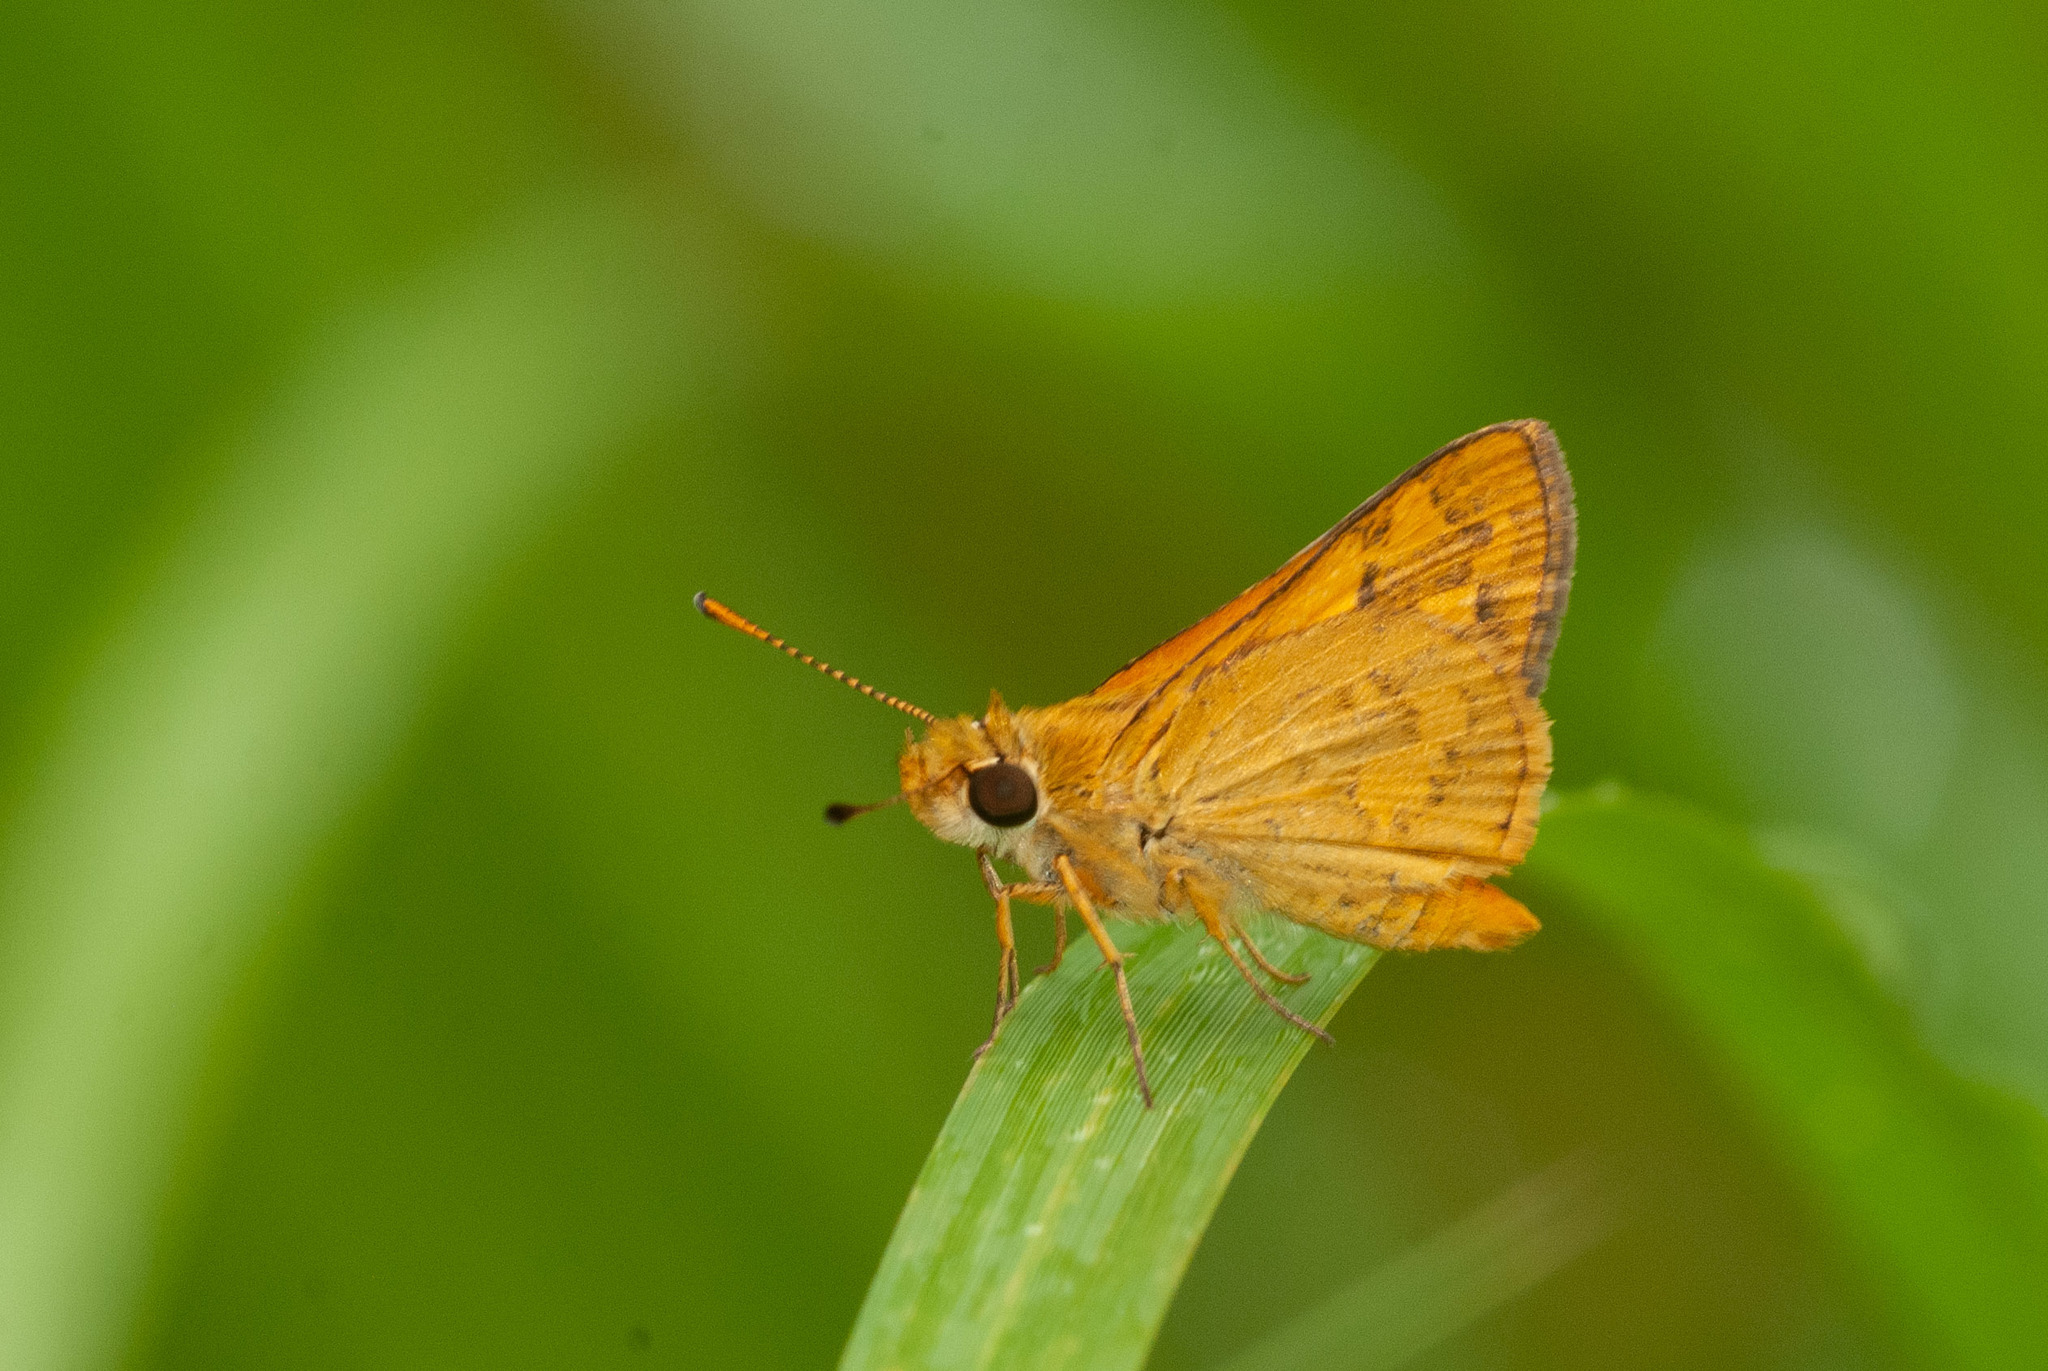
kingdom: Animalia
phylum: Arthropoda
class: Insecta
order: Lepidoptera
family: Hesperiidae
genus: Ocybadistes
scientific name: Ocybadistes walkeri
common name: Yellow-banded dart
